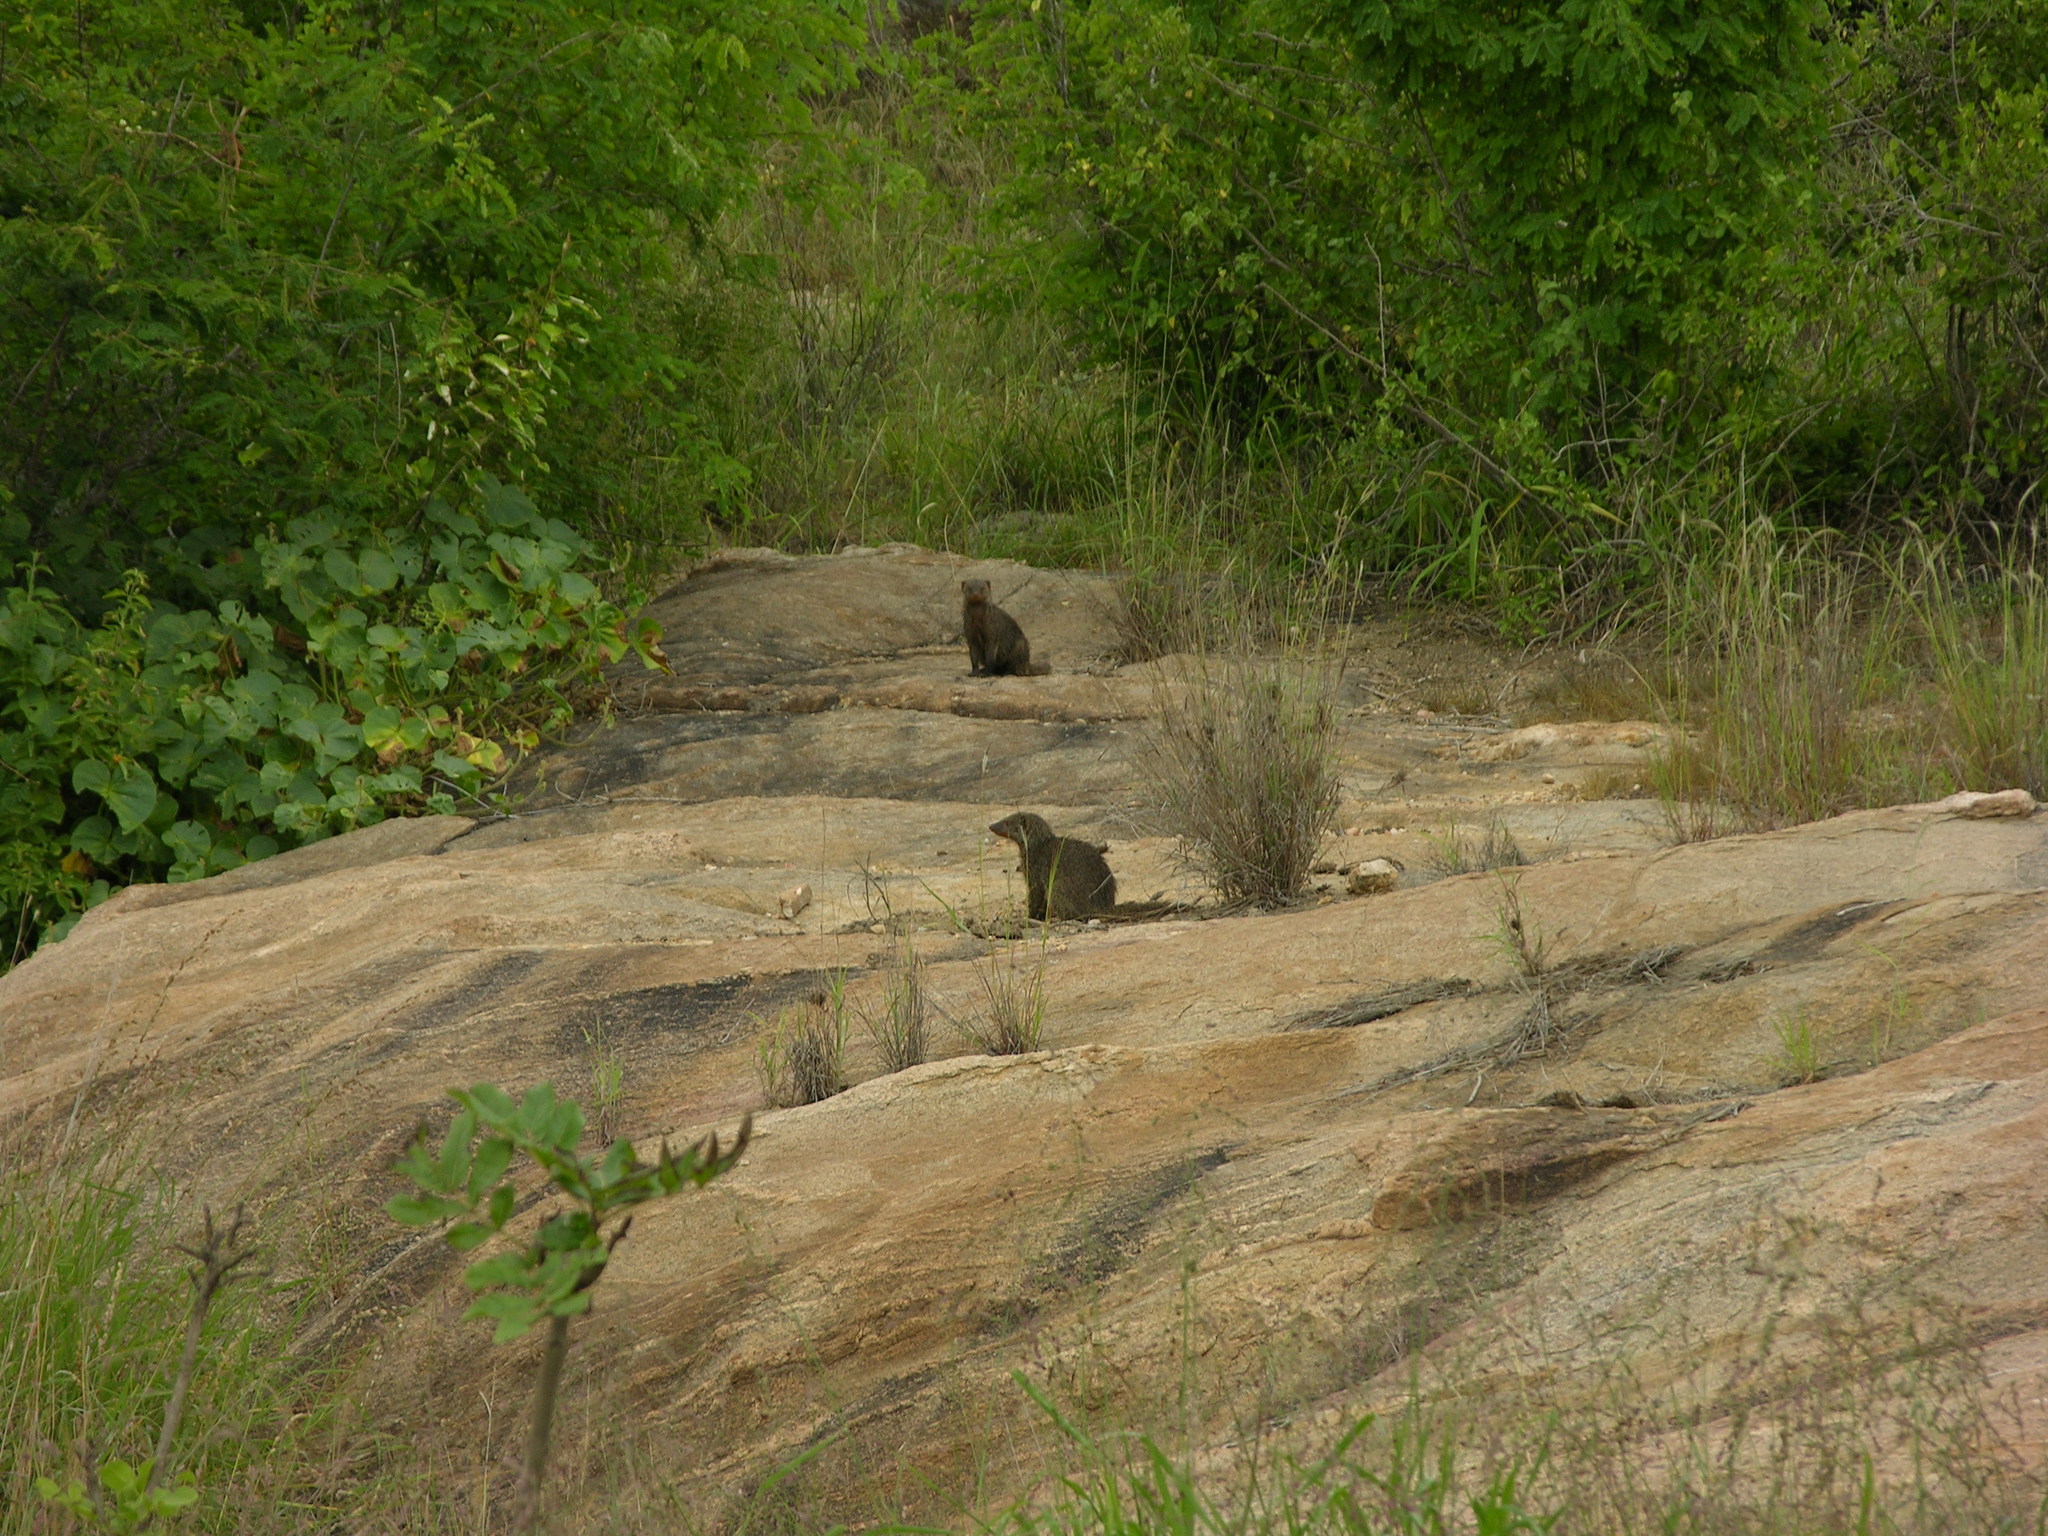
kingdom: Animalia
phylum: Chordata
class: Mammalia
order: Carnivora
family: Herpestidae
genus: Mungos
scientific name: Mungos mungo
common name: Banded mongoose
